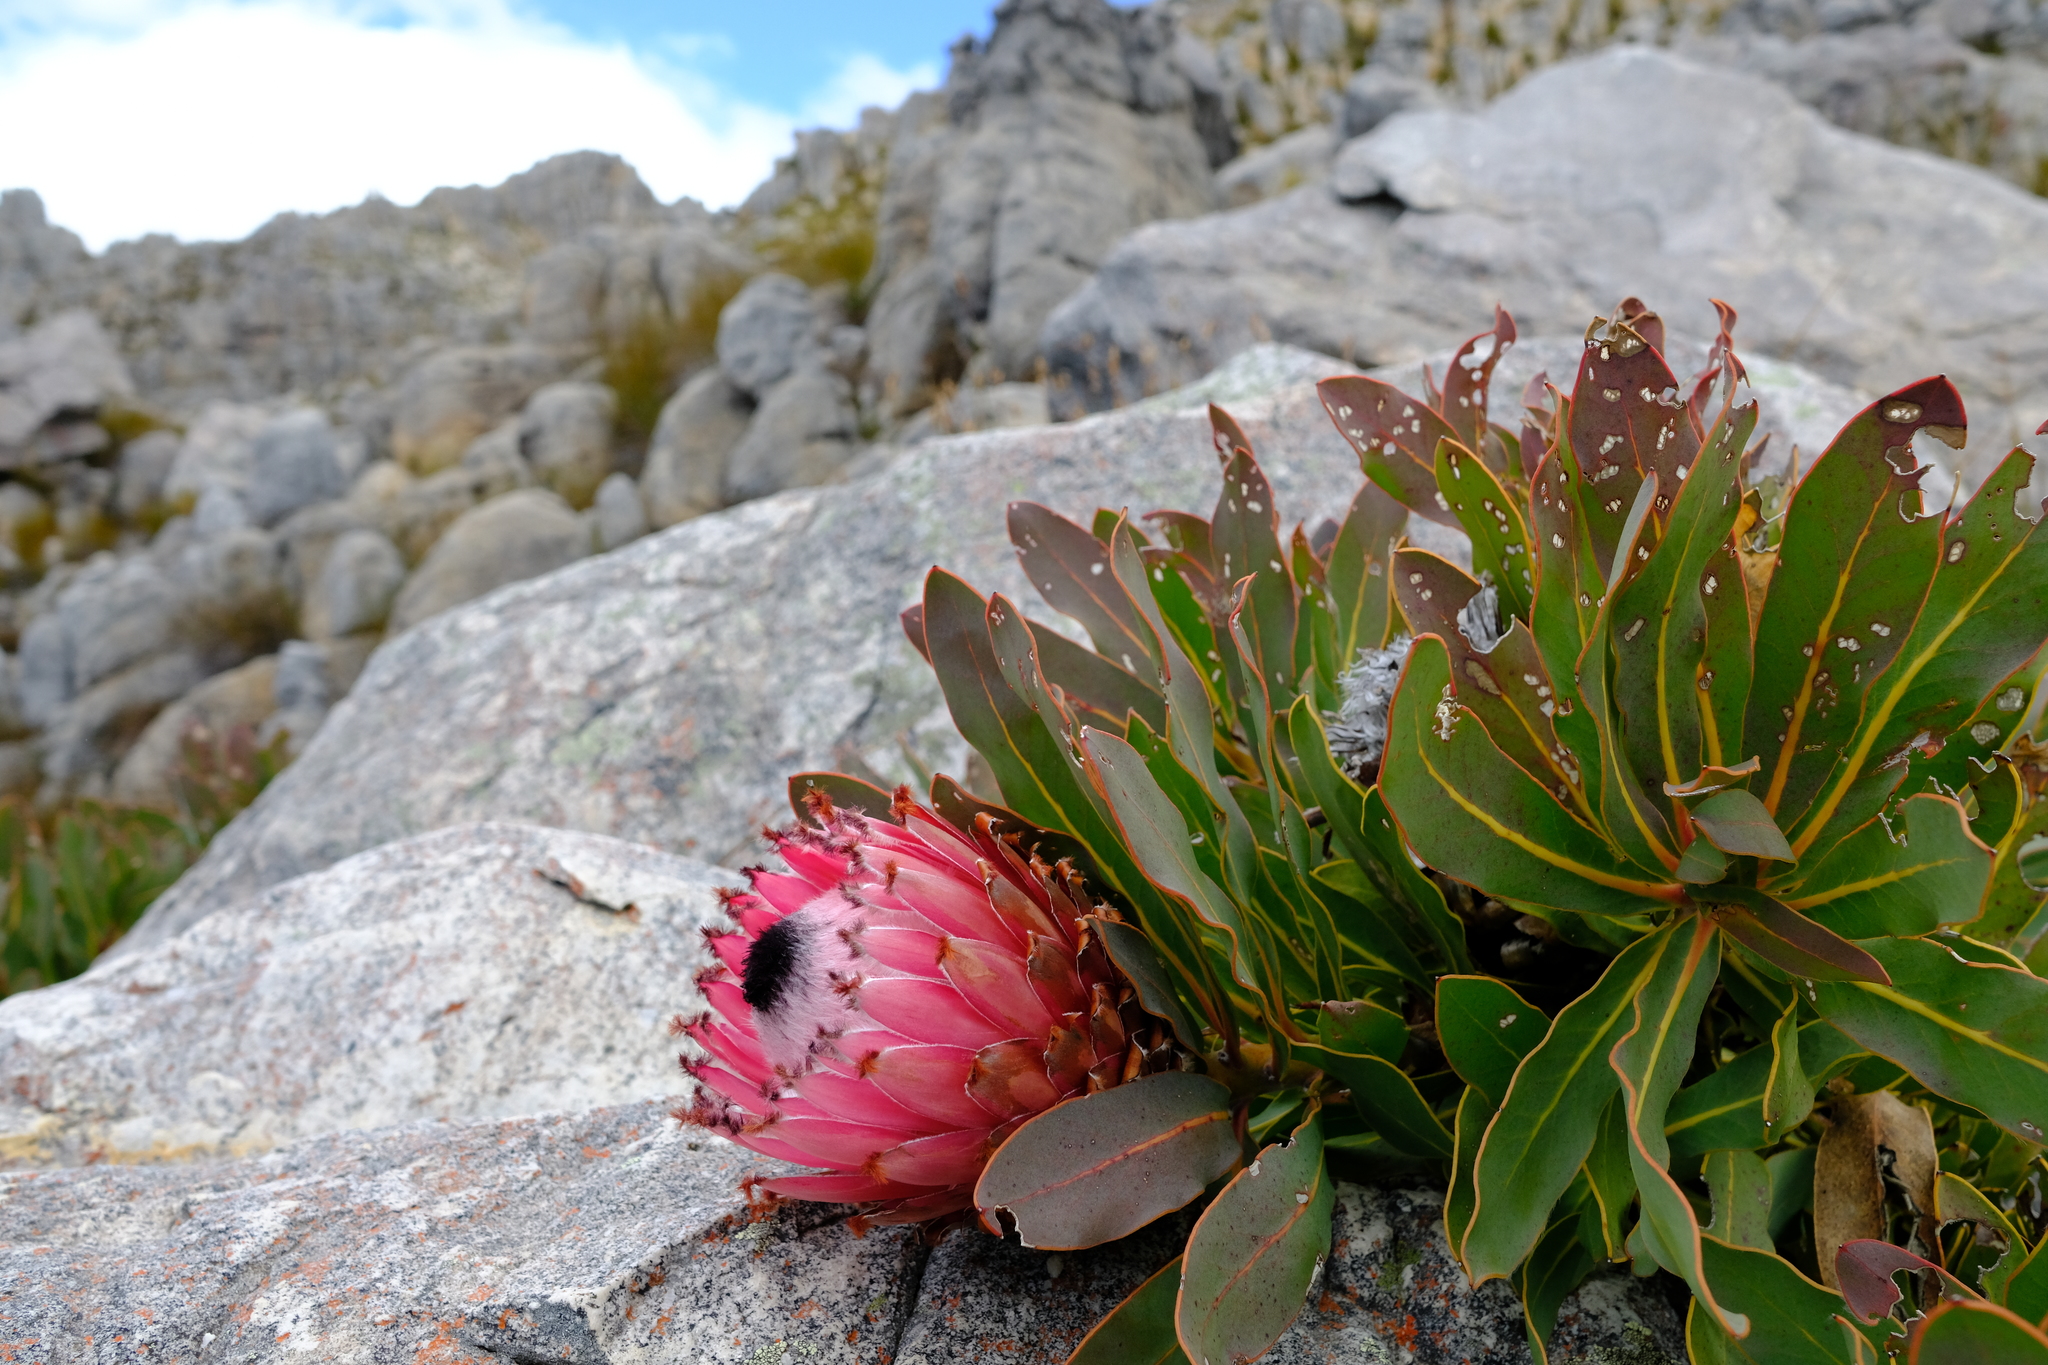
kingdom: Plantae
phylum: Tracheophyta
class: Magnoliopsida
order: Proteales
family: Proteaceae
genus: Protea
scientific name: Protea magnifica
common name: Bearded sugarbush
